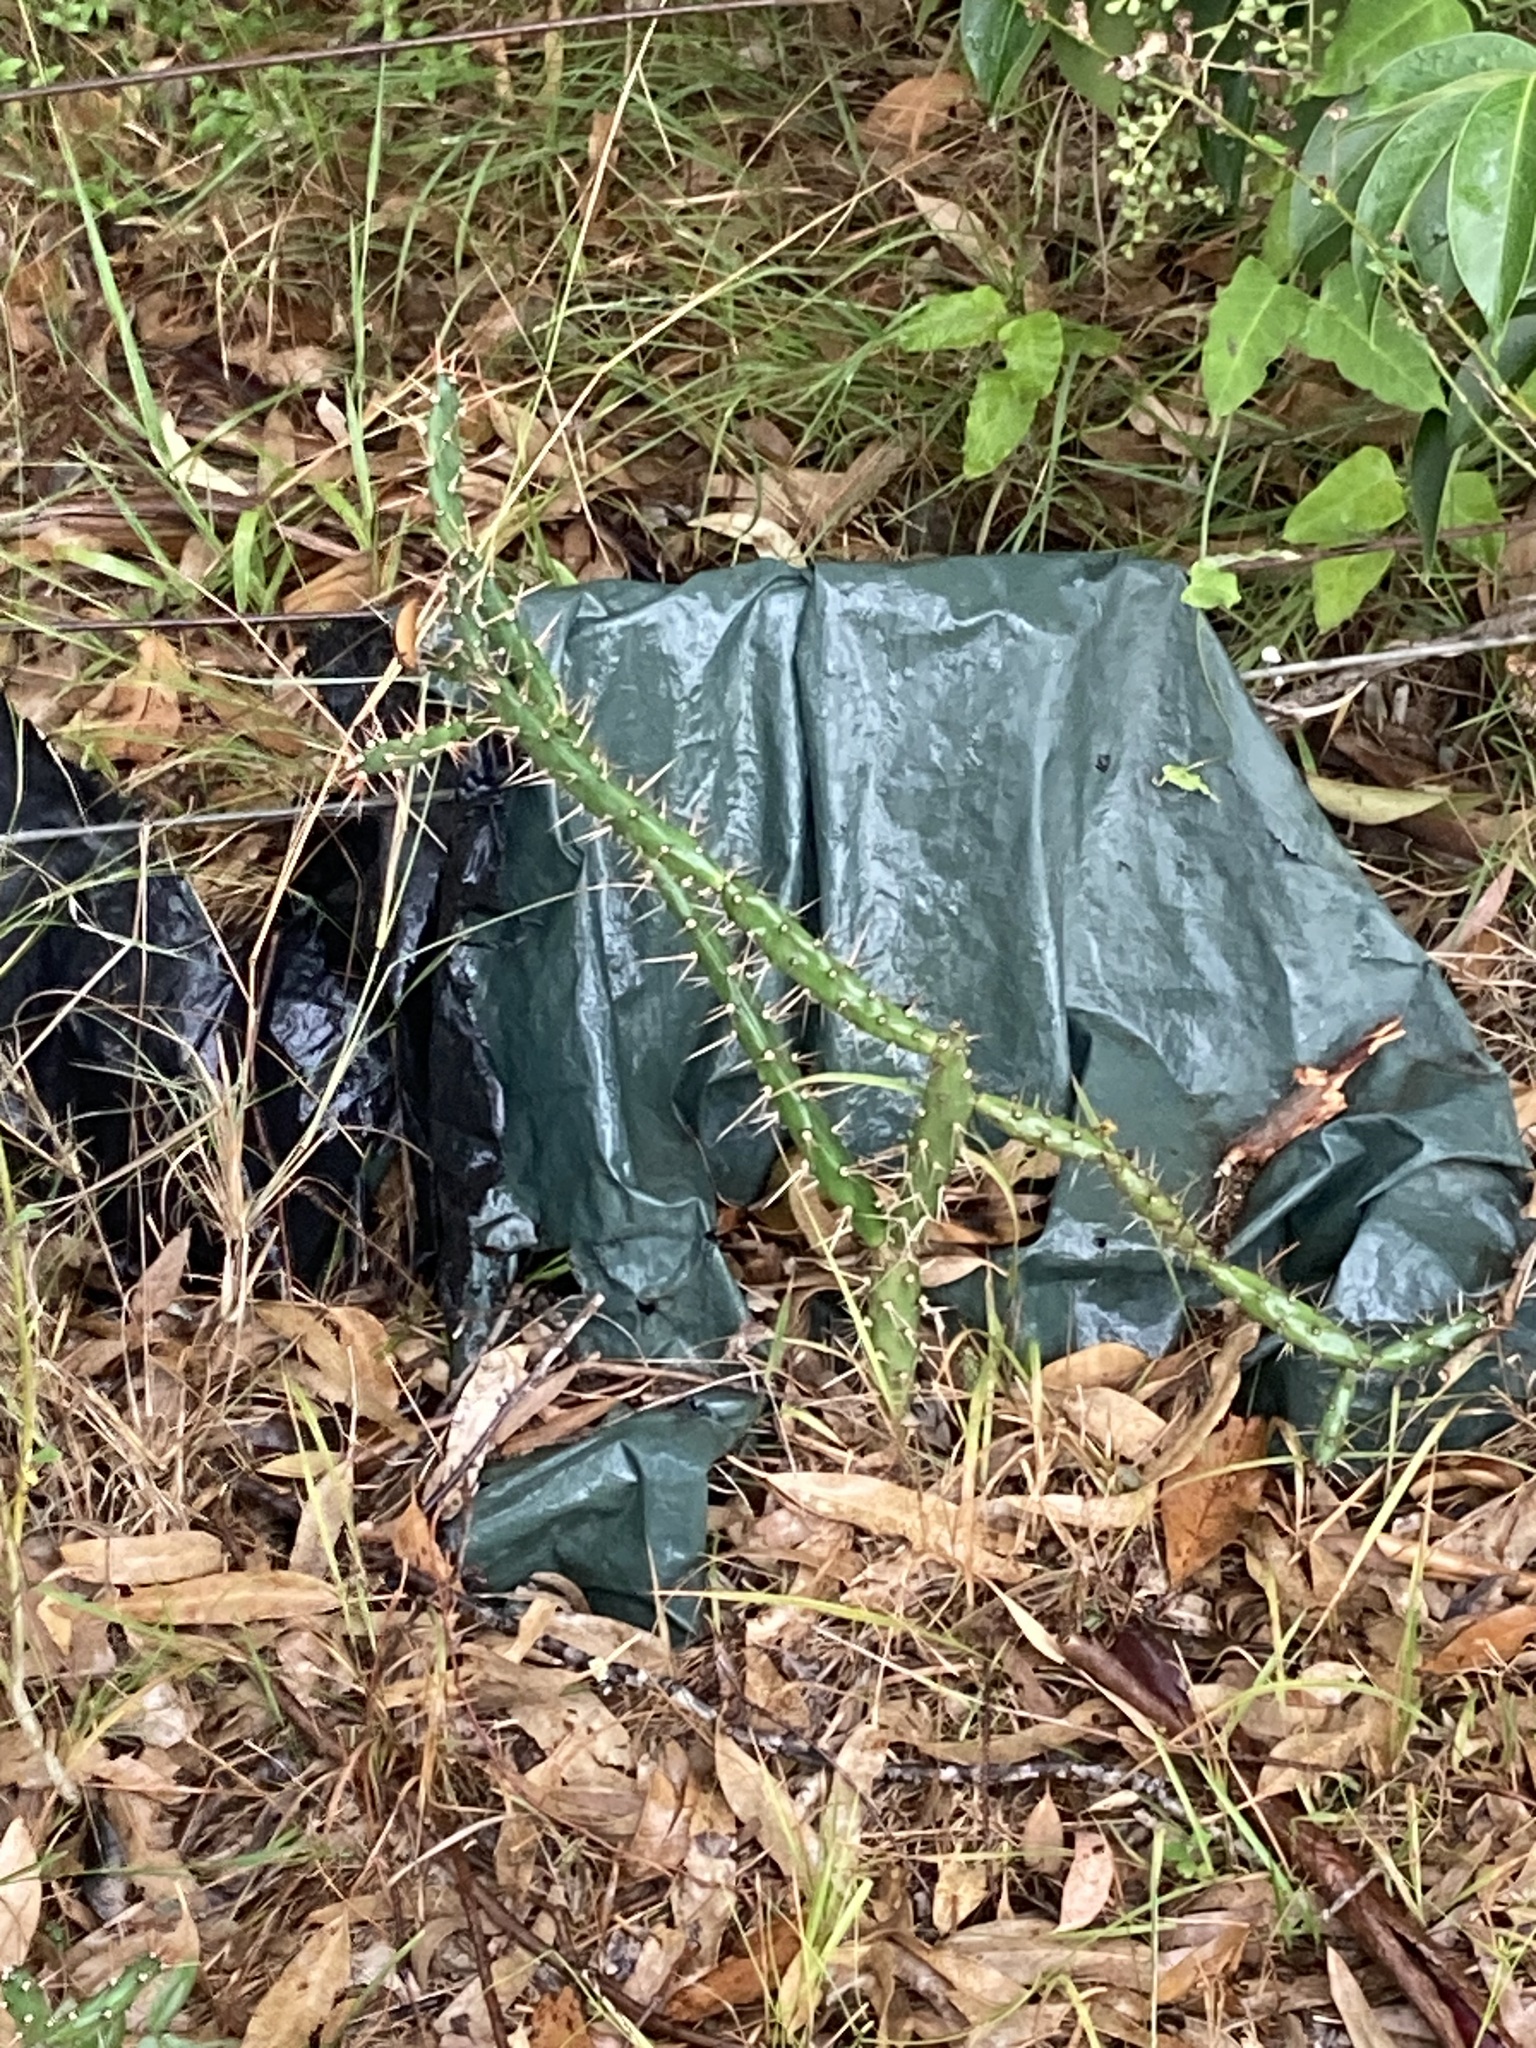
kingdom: Plantae
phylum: Tracheophyta
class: Magnoliopsida
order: Caryophyllales
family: Cactaceae
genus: Opuntia
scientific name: Opuntia aurantiaca
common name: Jointed pricklypear
